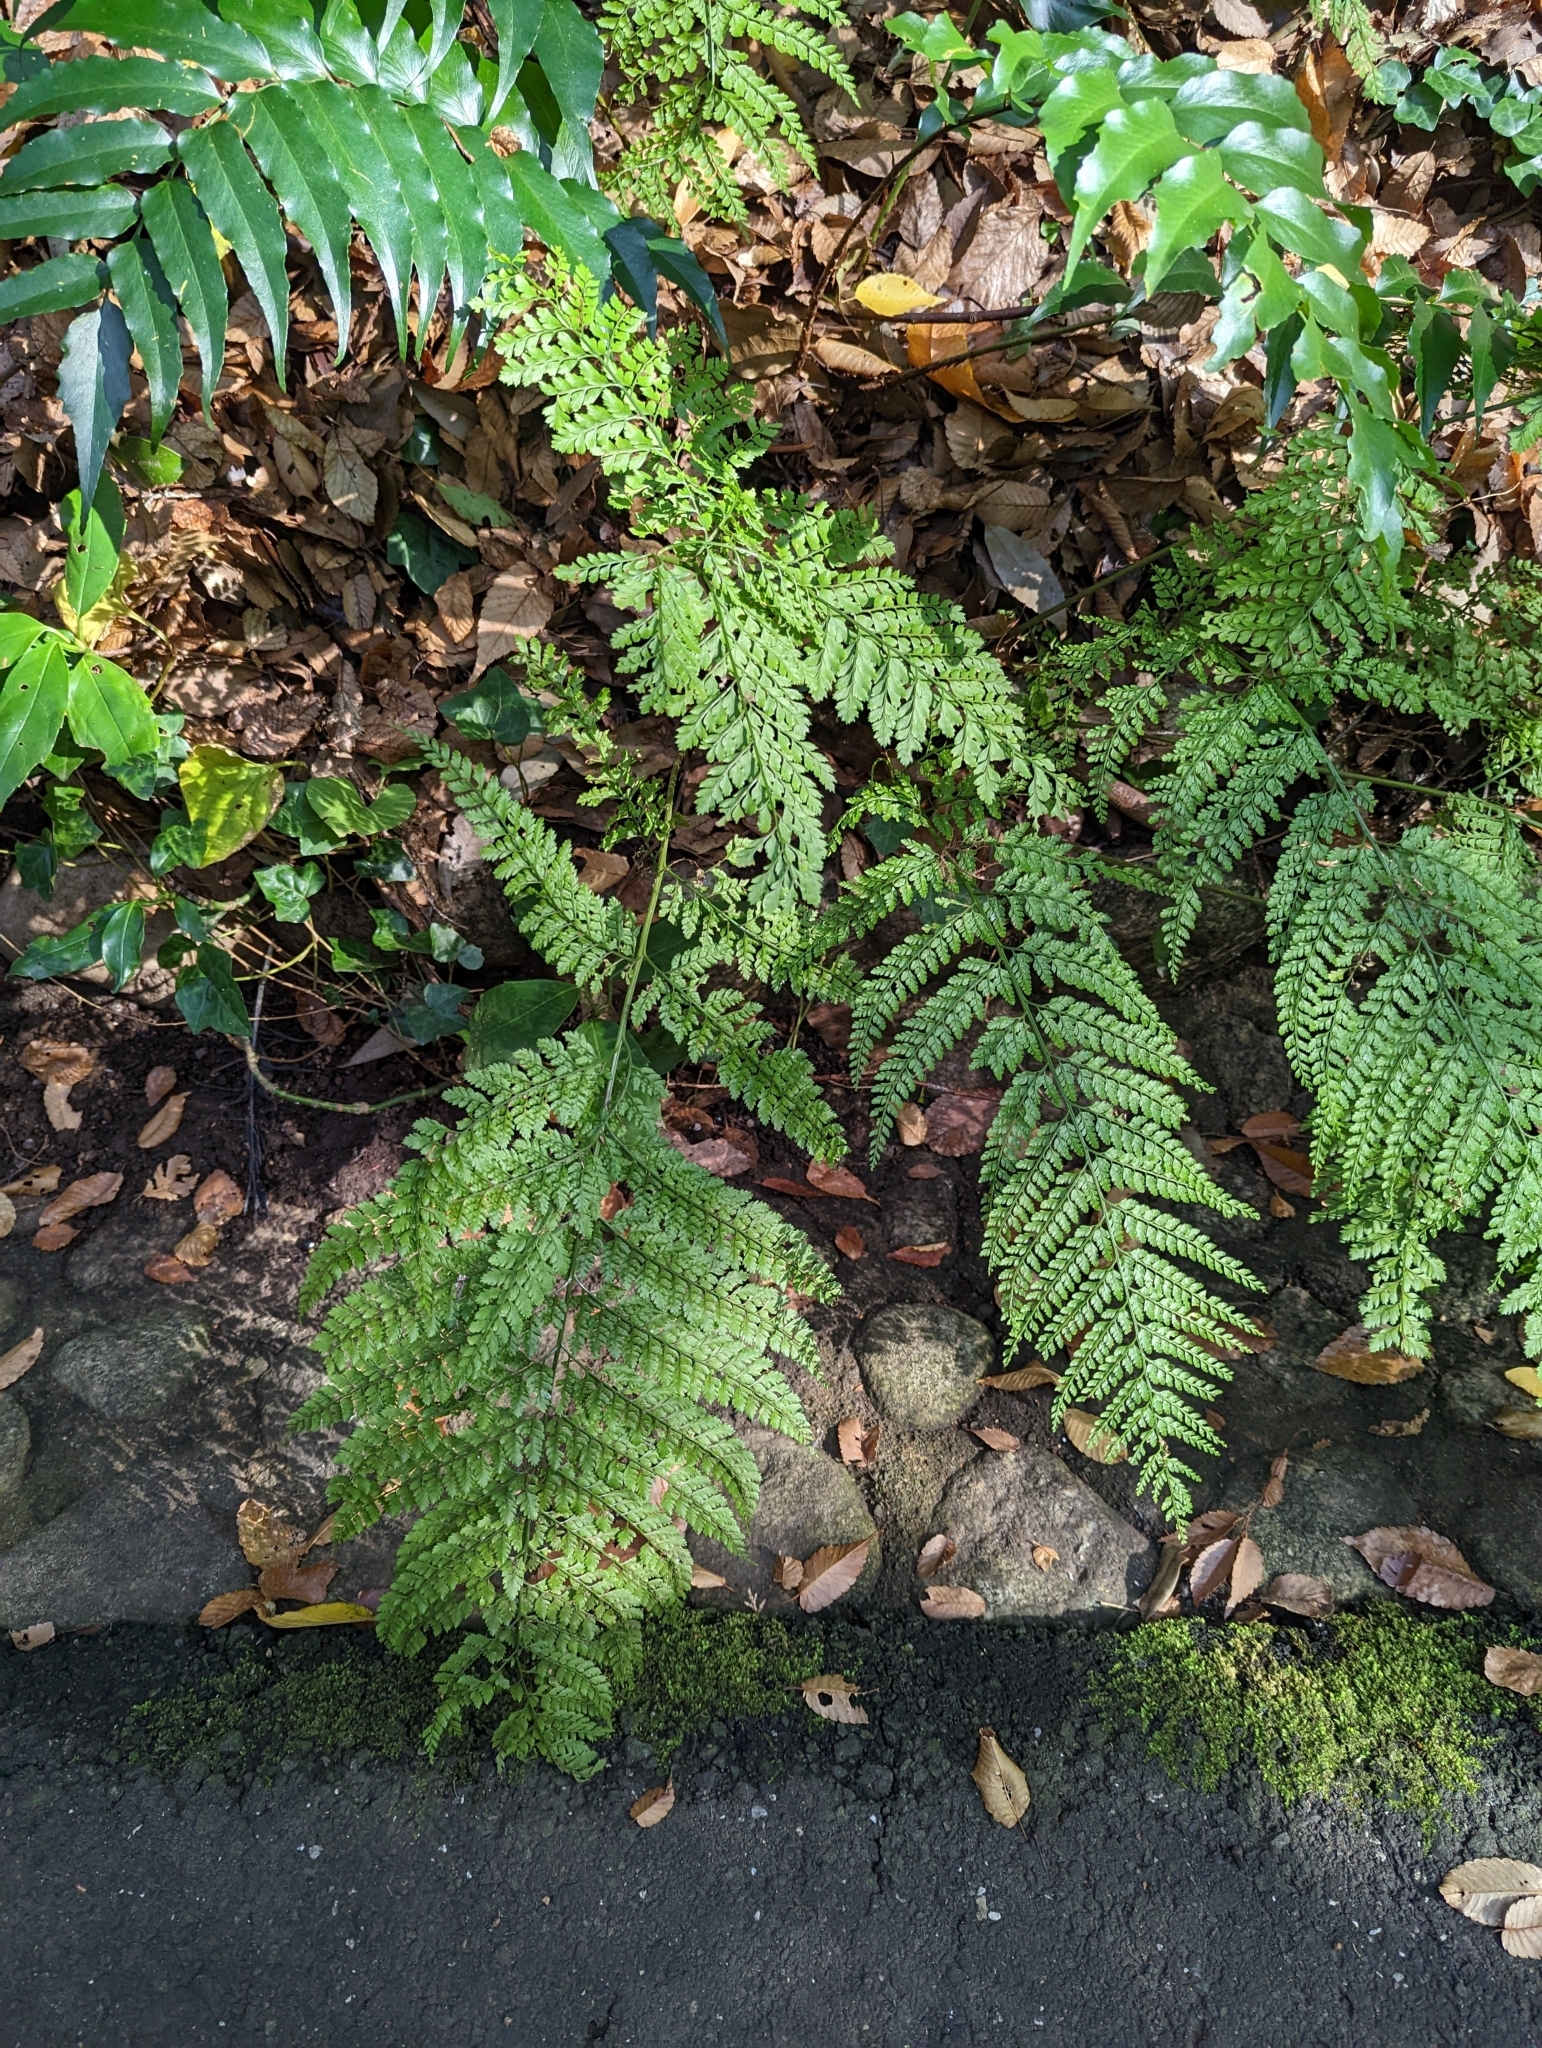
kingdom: Plantae
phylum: Tracheophyta
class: Polypodiopsida
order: Polypodiales
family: Dryopteridaceae
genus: Arachniodes
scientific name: Arachniodes standishii
